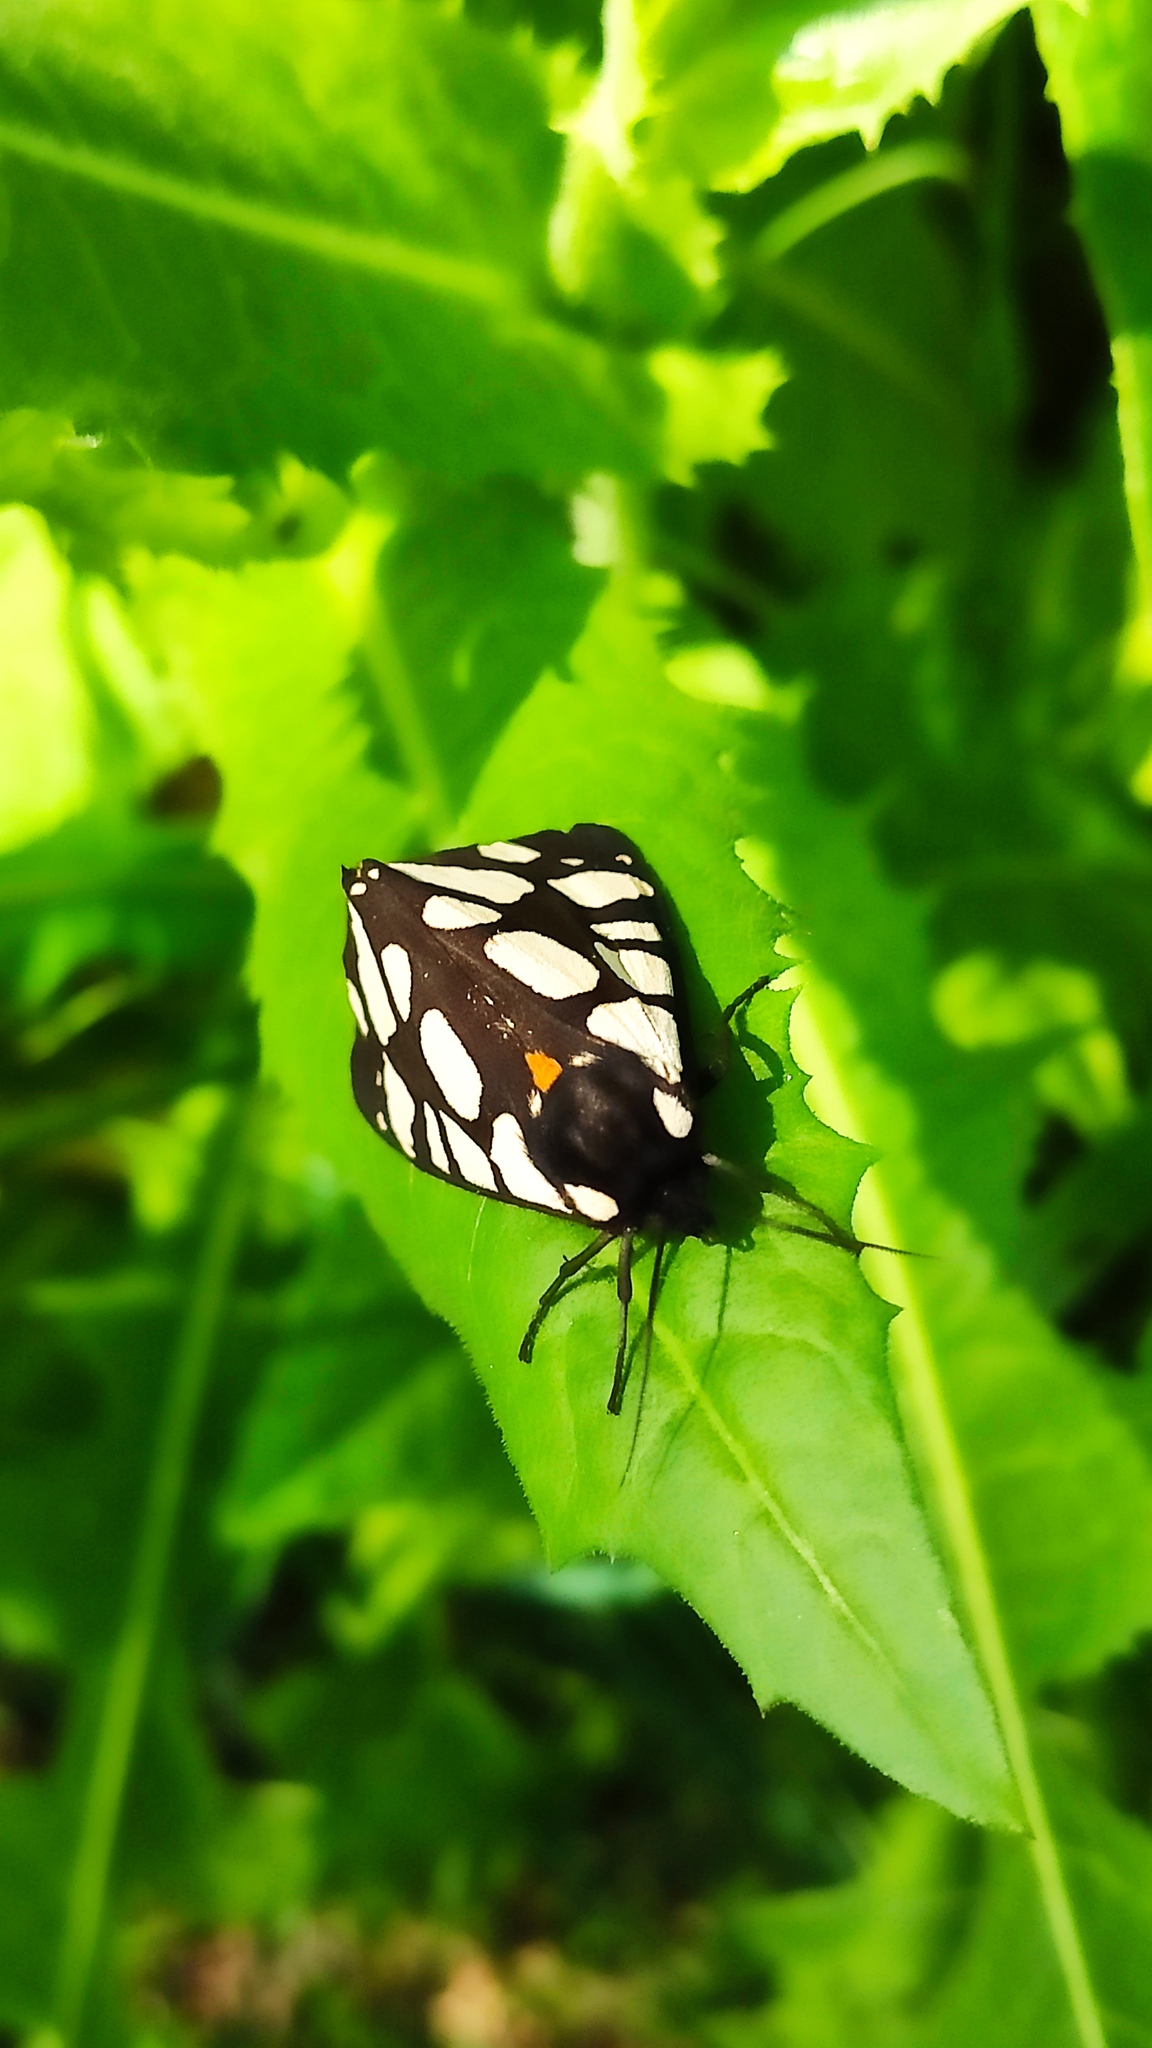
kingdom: Animalia
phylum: Arthropoda
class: Insecta
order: Lepidoptera
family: Erebidae
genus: Epicallia
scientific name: Epicallia villica
